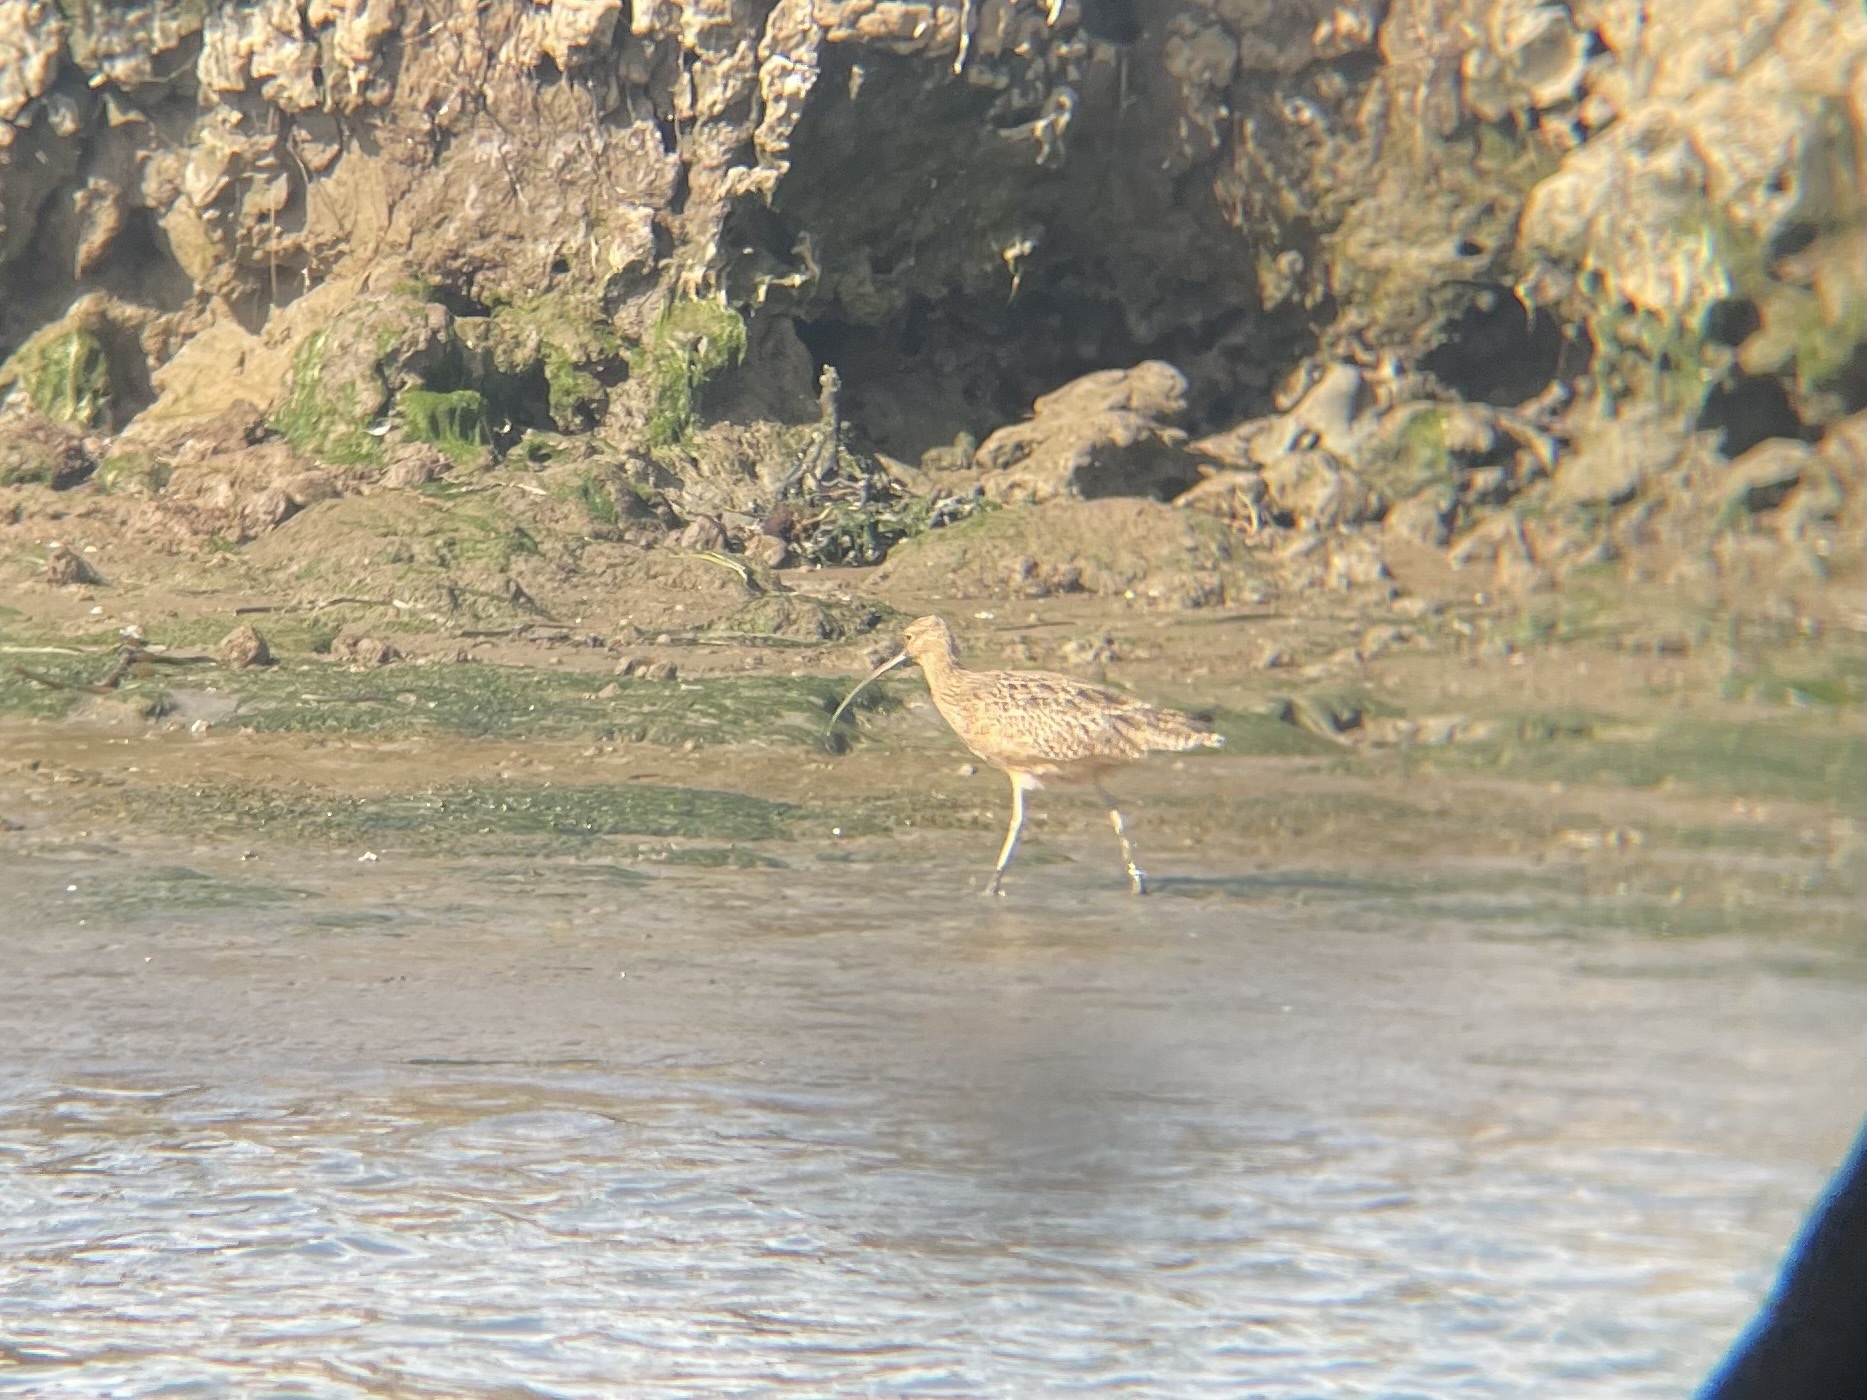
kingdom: Animalia
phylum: Chordata
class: Aves
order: Charadriiformes
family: Scolopacidae
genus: Numenius
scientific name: Numenius americanus
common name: Long-billed curlew
